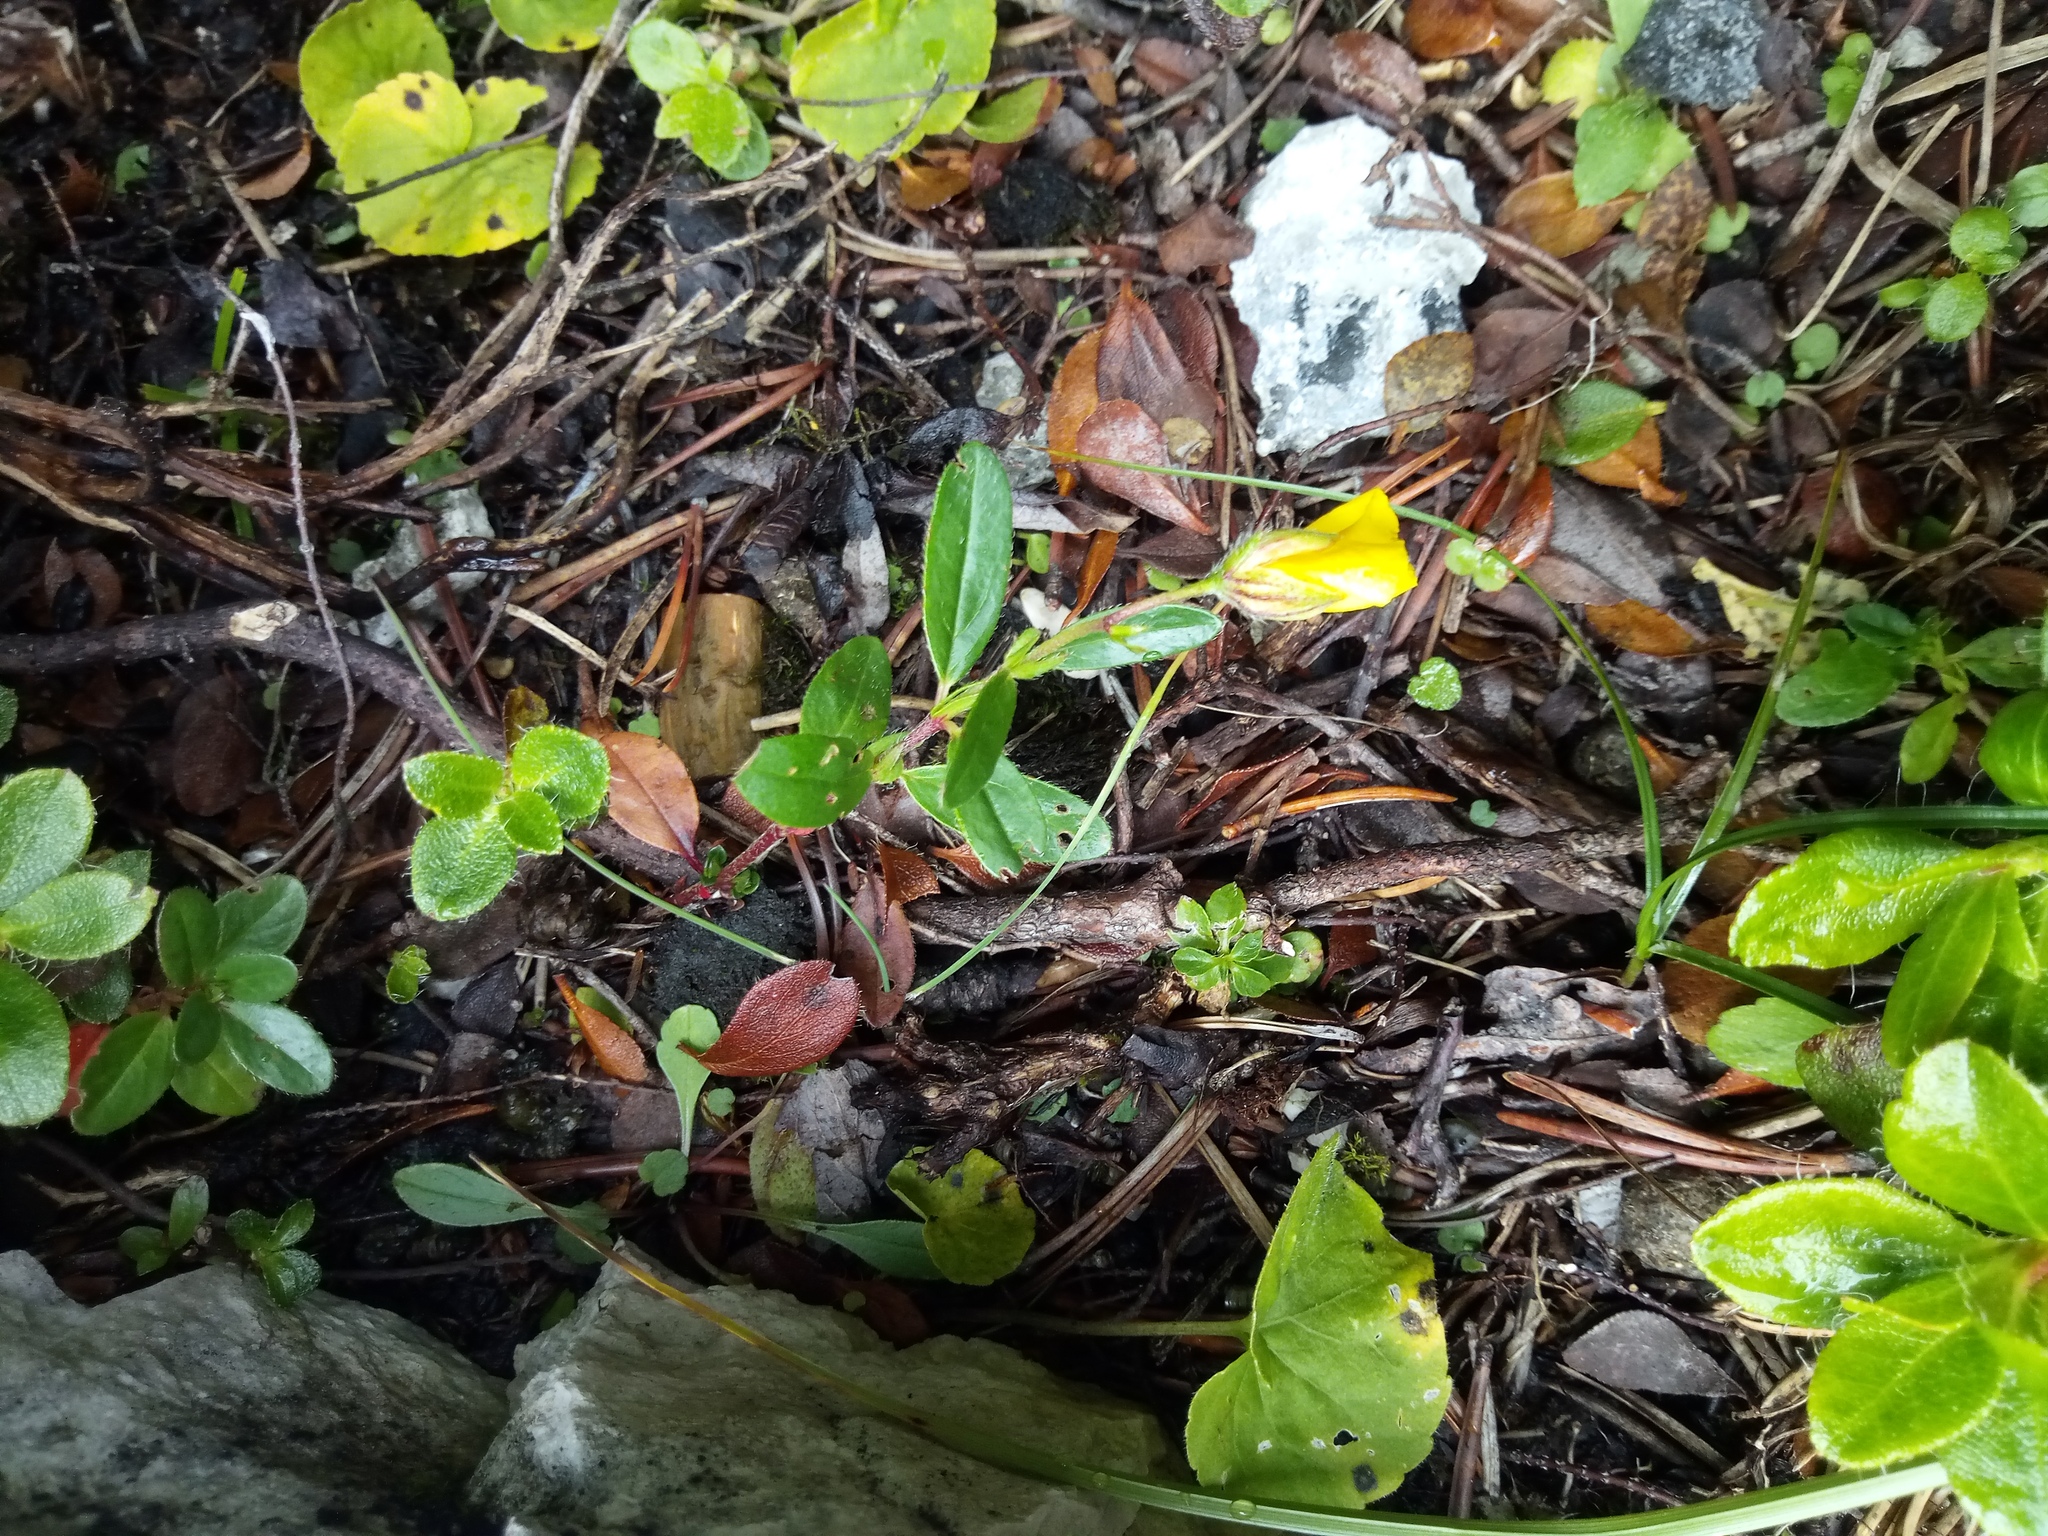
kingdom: Plantae
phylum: Tracheophyta
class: Magnoliopsida
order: Malvales
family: Cistaceae
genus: Helianthemum
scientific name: Helianthemum nummularium
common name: Common rock-rose
